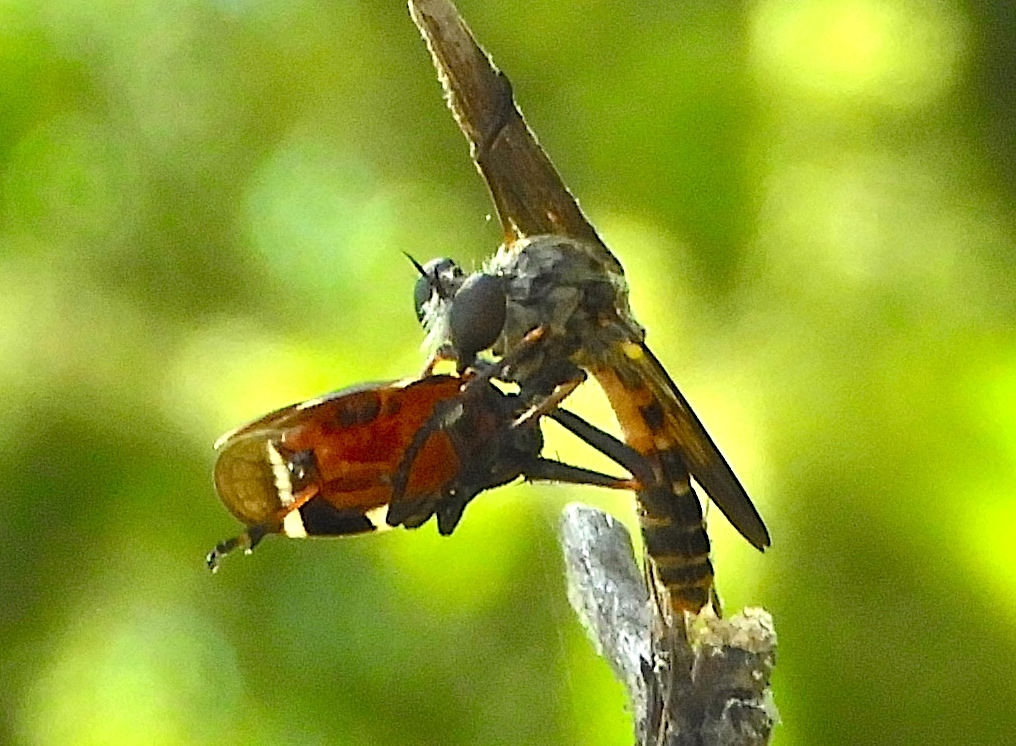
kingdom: Animalia
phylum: Arthropoda
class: Insecta
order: Diptera
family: Asilidae
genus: Heteropogon
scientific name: Heteropogon
